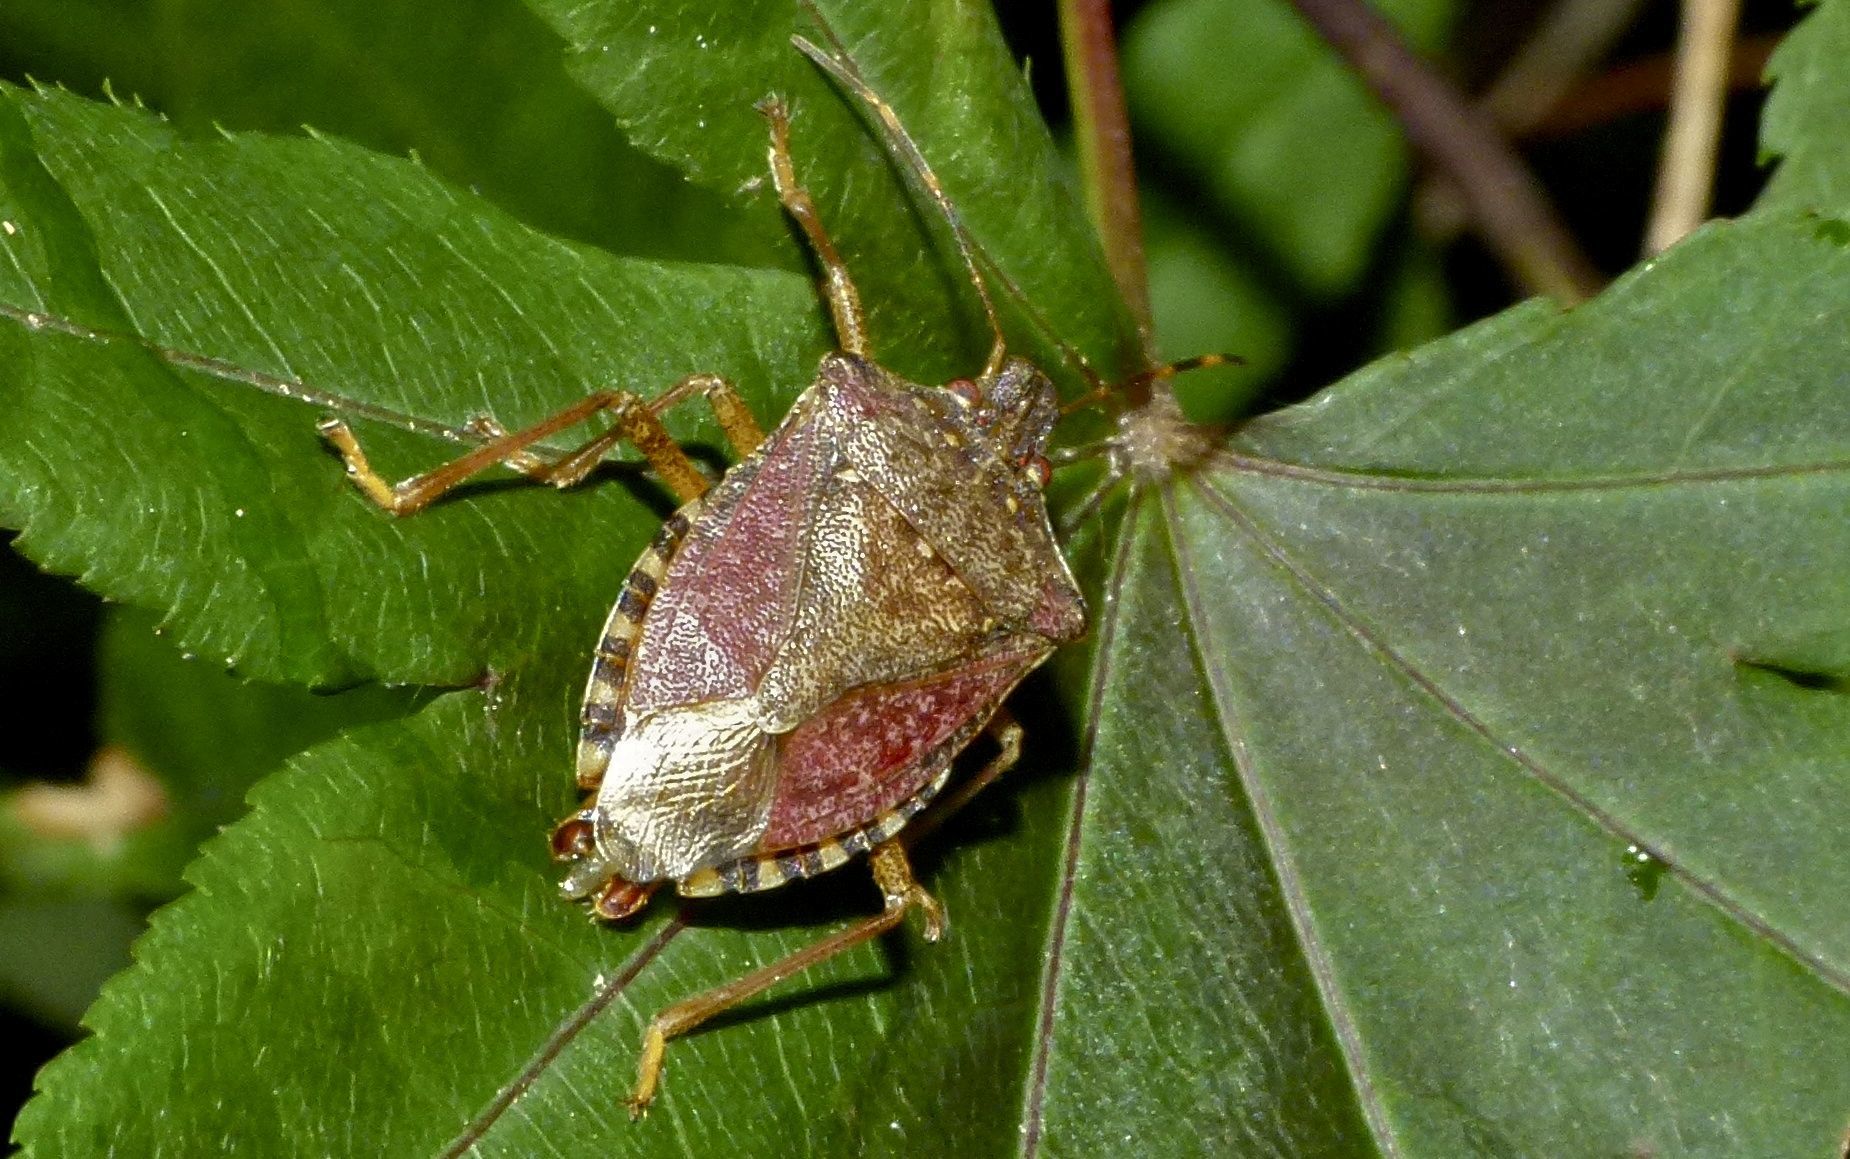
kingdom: Animalia
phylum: Arthropoda
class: Insecta
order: Hemiptera
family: Pentatomidae
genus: Halyomorpha
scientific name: Halyomorpha halys
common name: Brown marmorated stink bug
